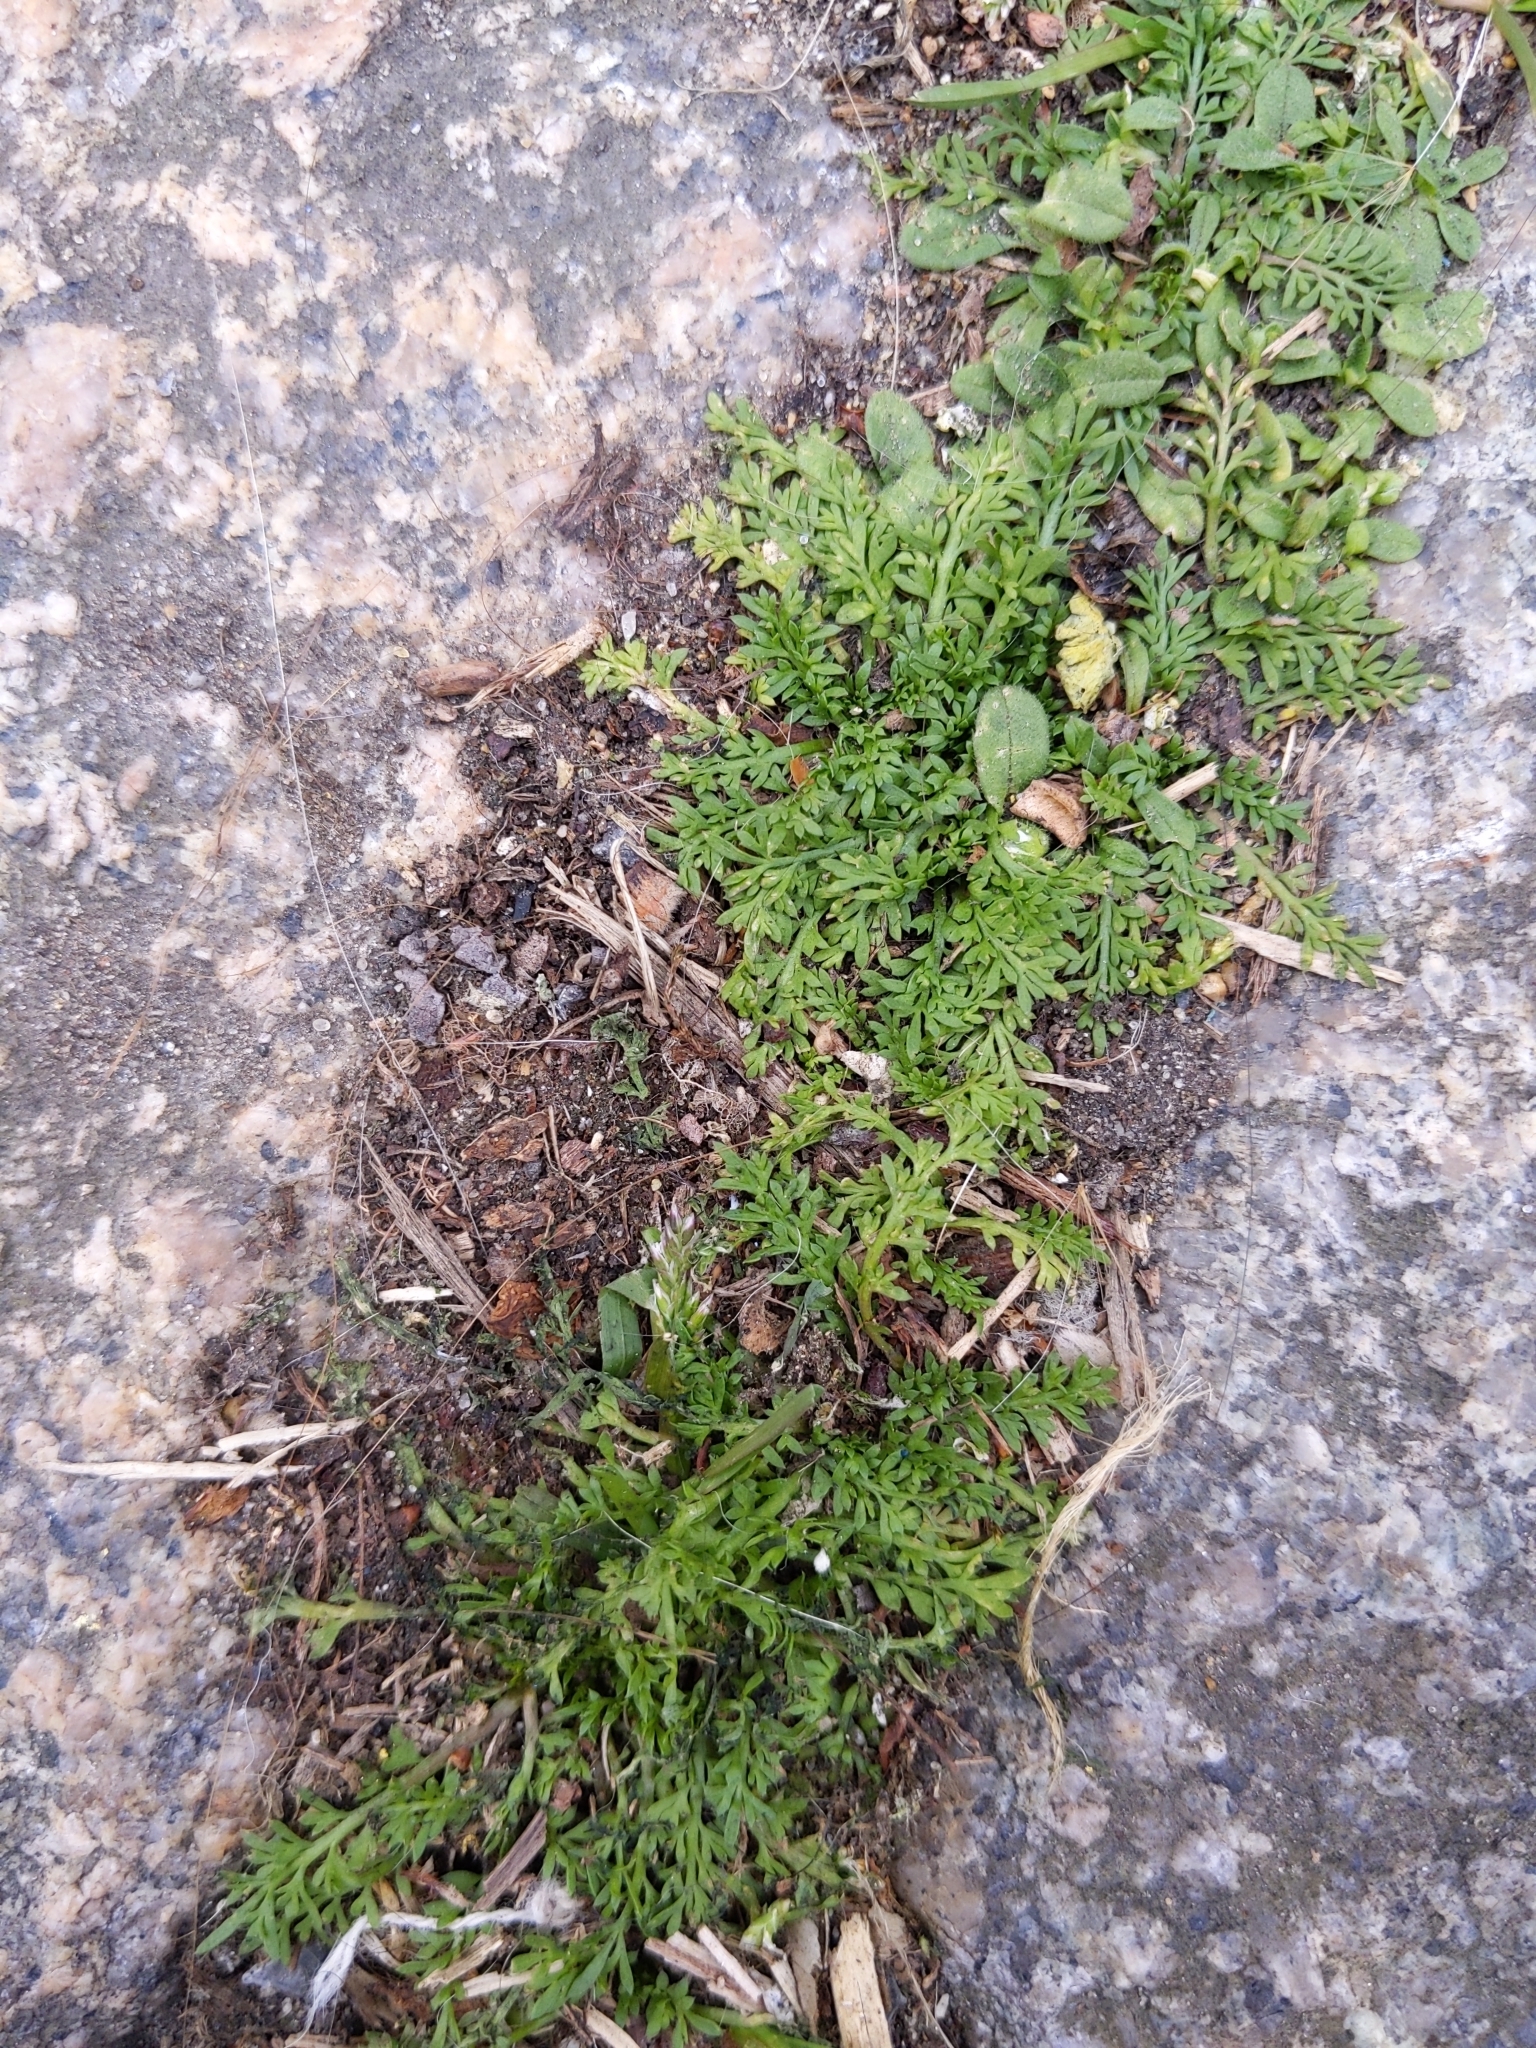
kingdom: Plantae
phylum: Tracheophyta
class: Magnoliopsida
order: Brassicales
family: Brassicaceae
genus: Lepidium
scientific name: Lepidium didymum
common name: Lesser swinecress
